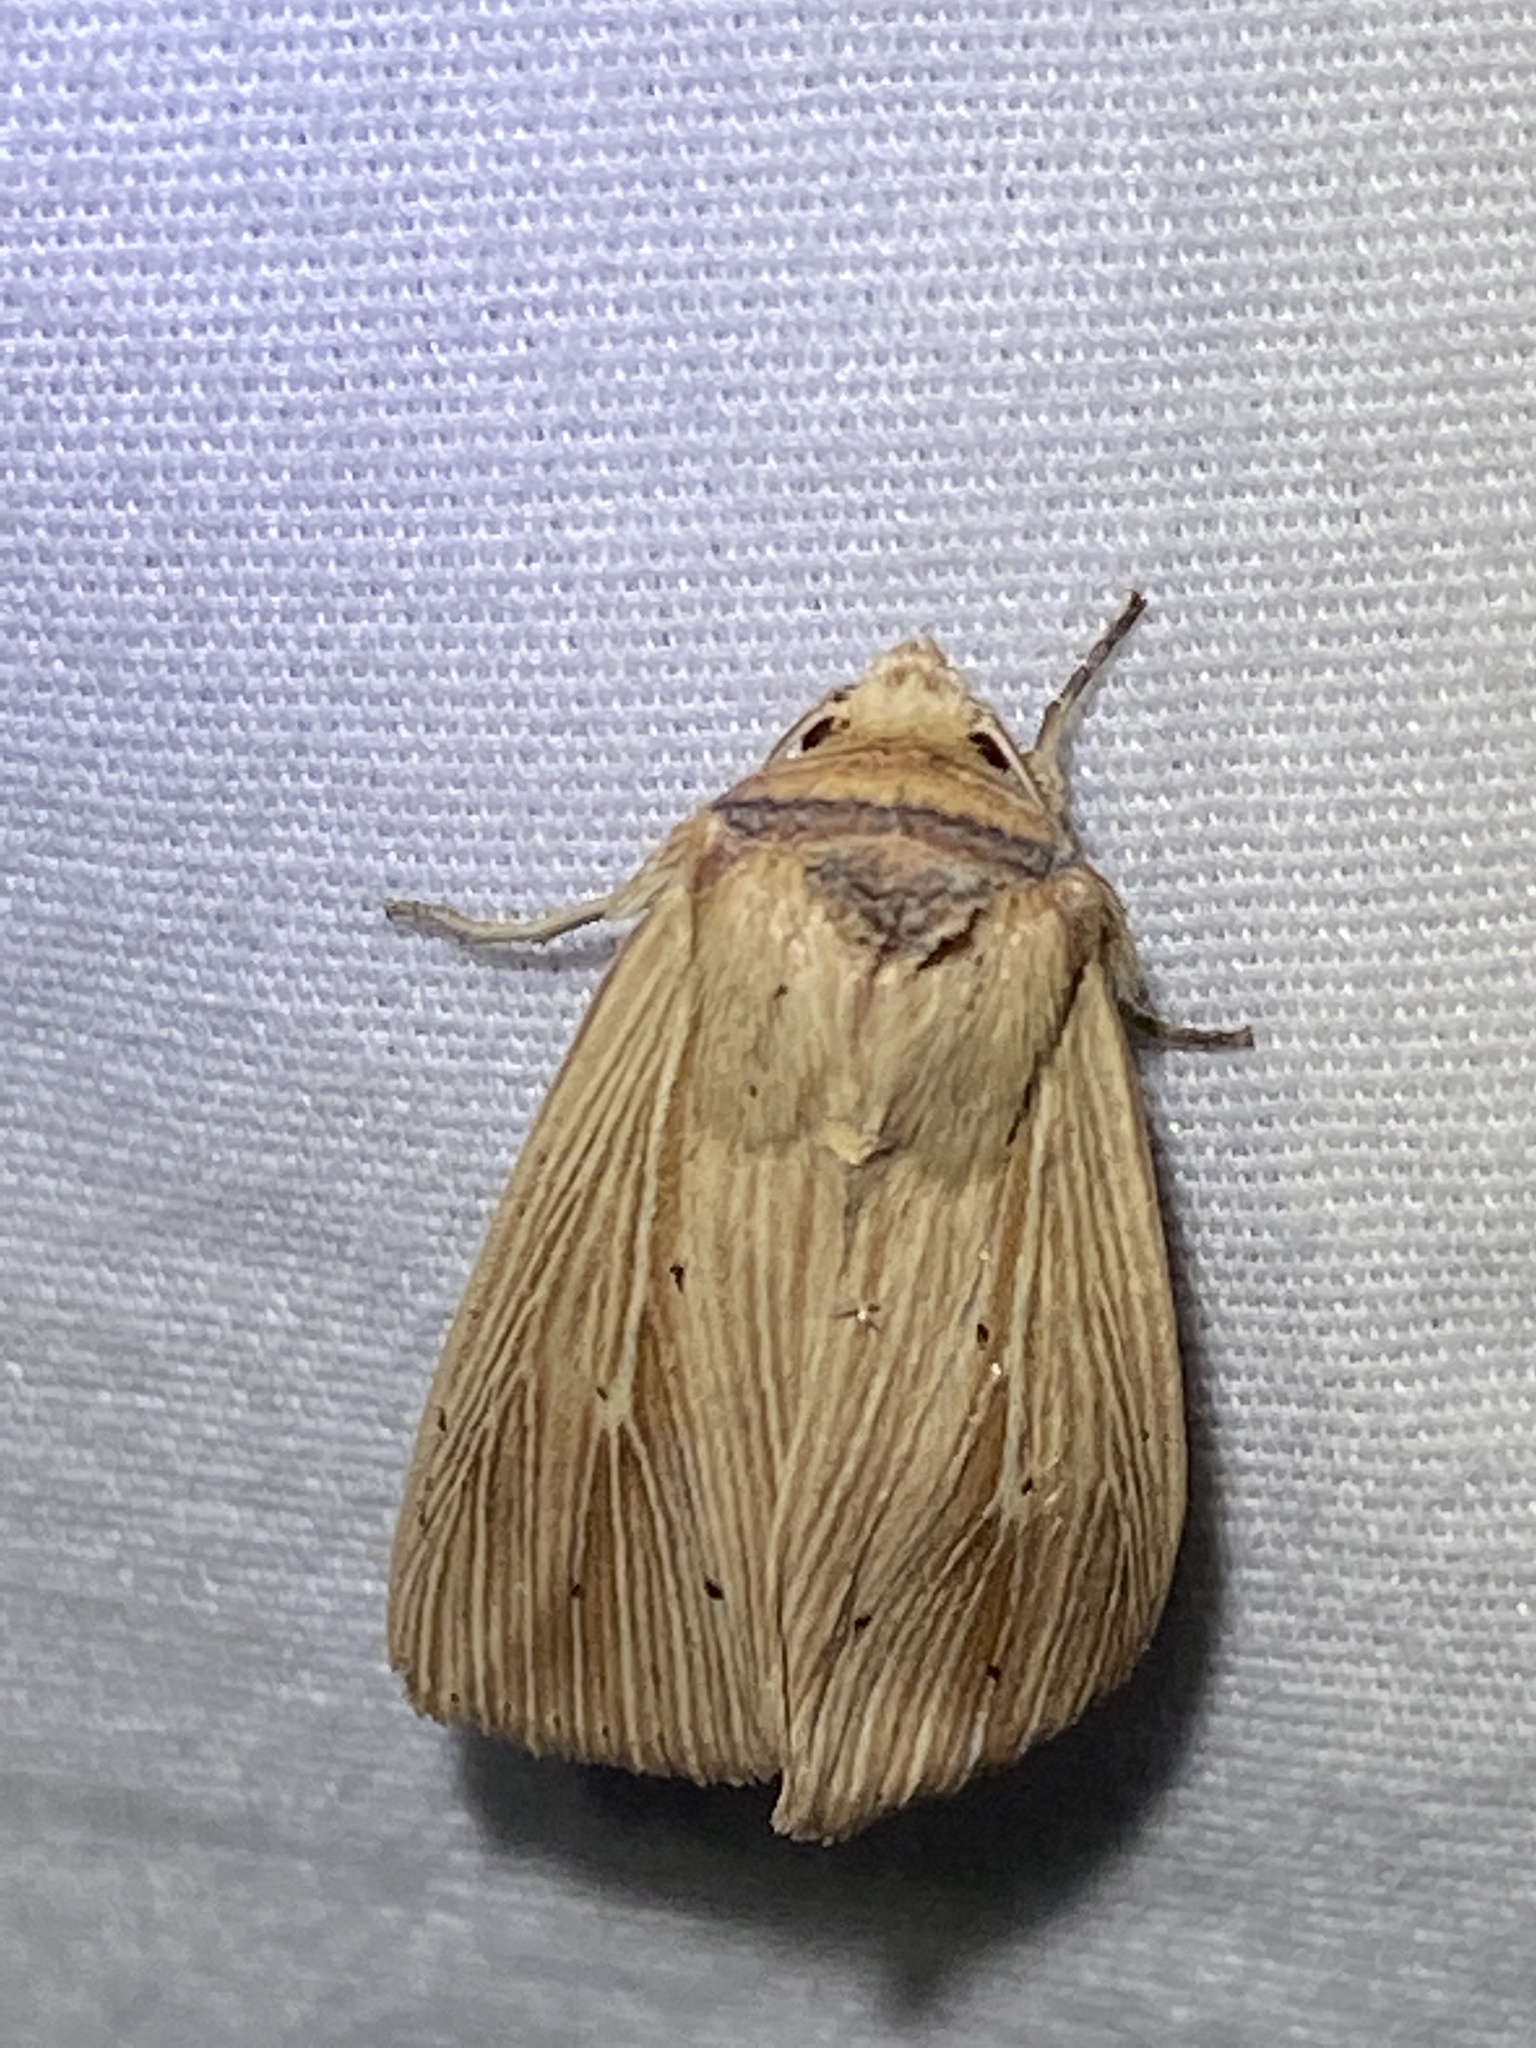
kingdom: Animalia
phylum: Arthropoda
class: Insecta
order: Lepidoptera
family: Noctuidae
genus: Leucania
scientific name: Leucania adjuta
